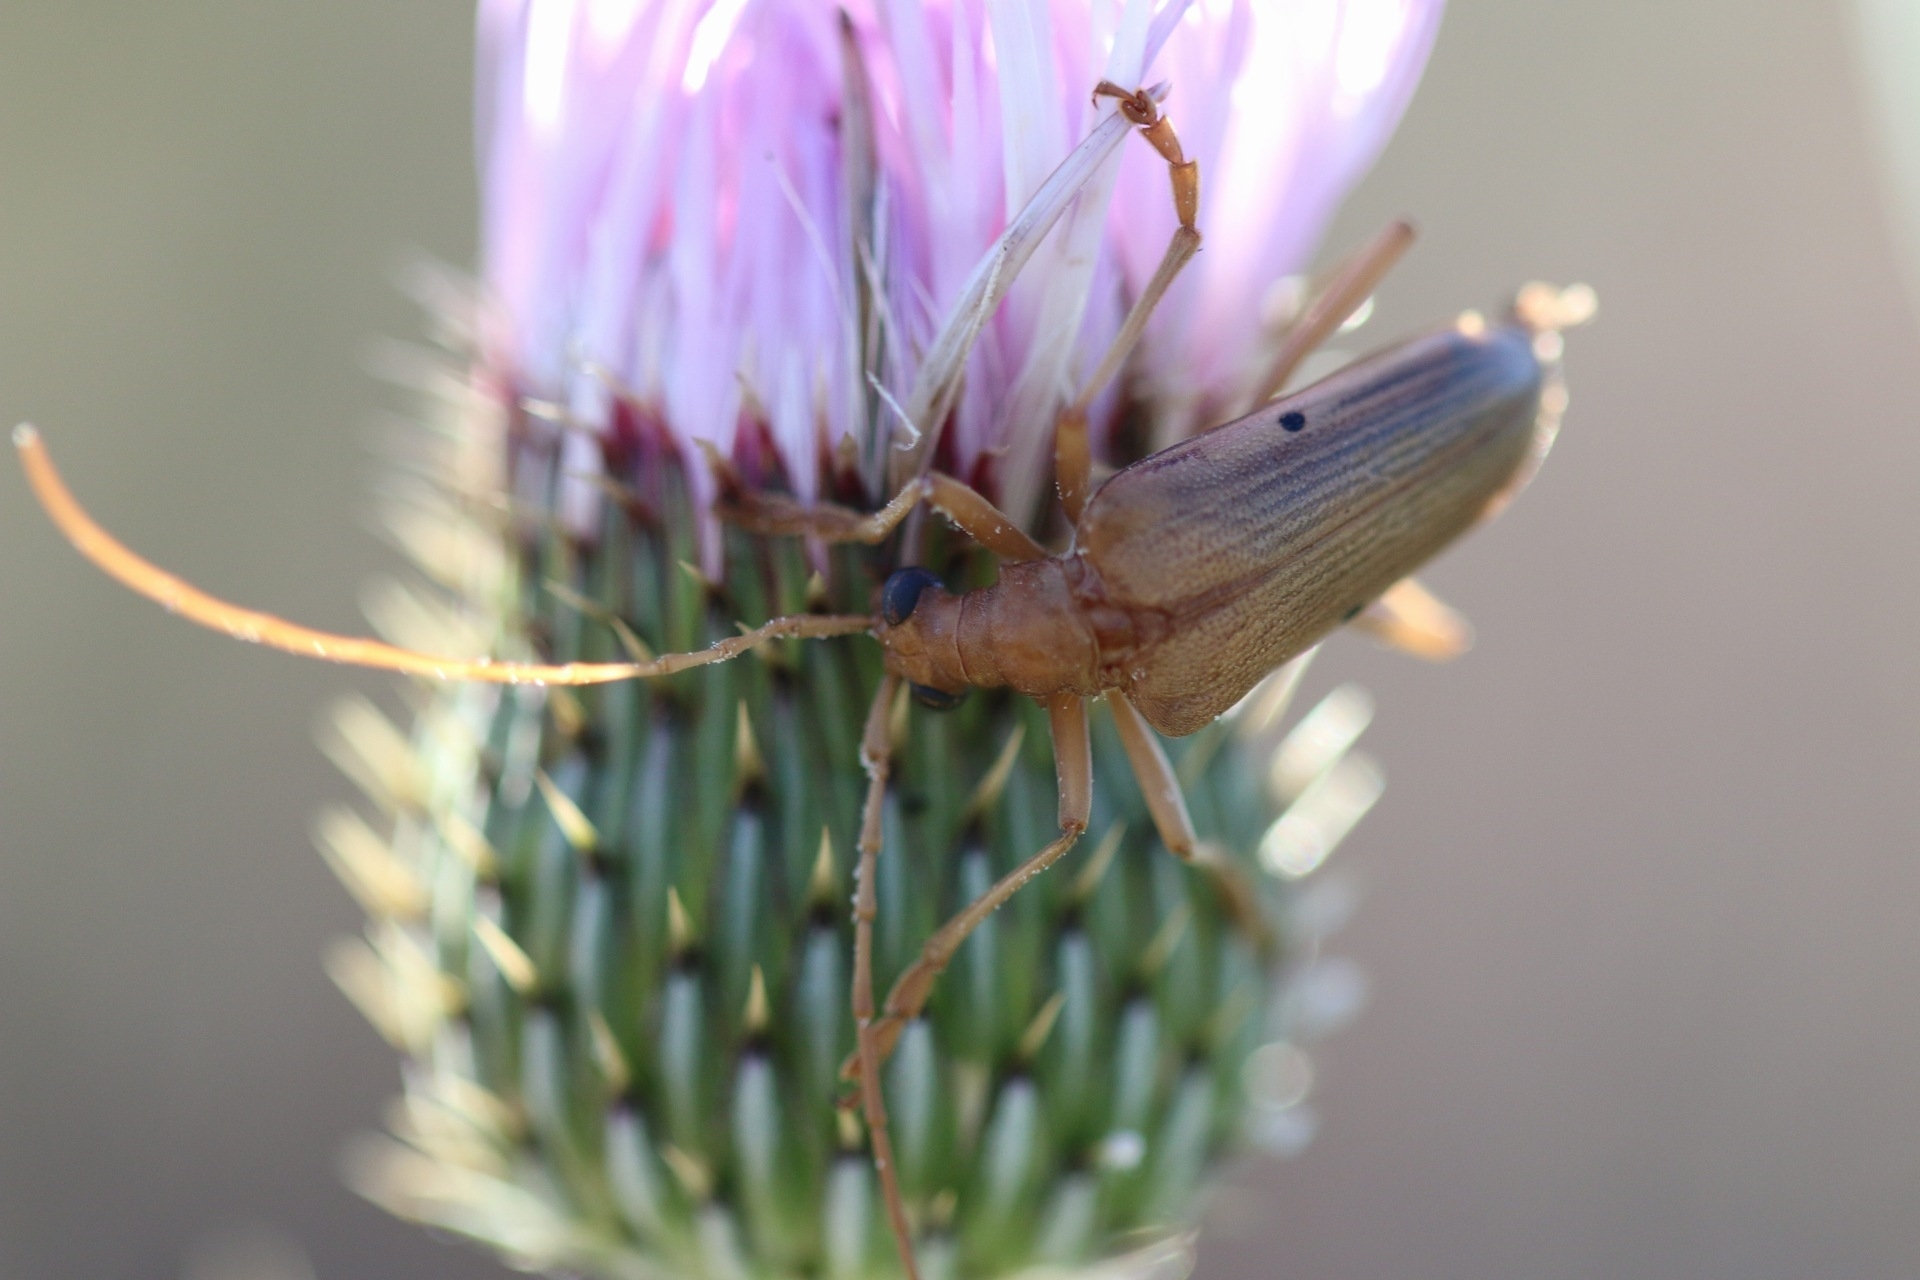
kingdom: Animalia
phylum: Arthropoda
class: Insecta
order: Coleoptera
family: Cerambycidae
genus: Centrodera
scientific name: Centrodera spurca
